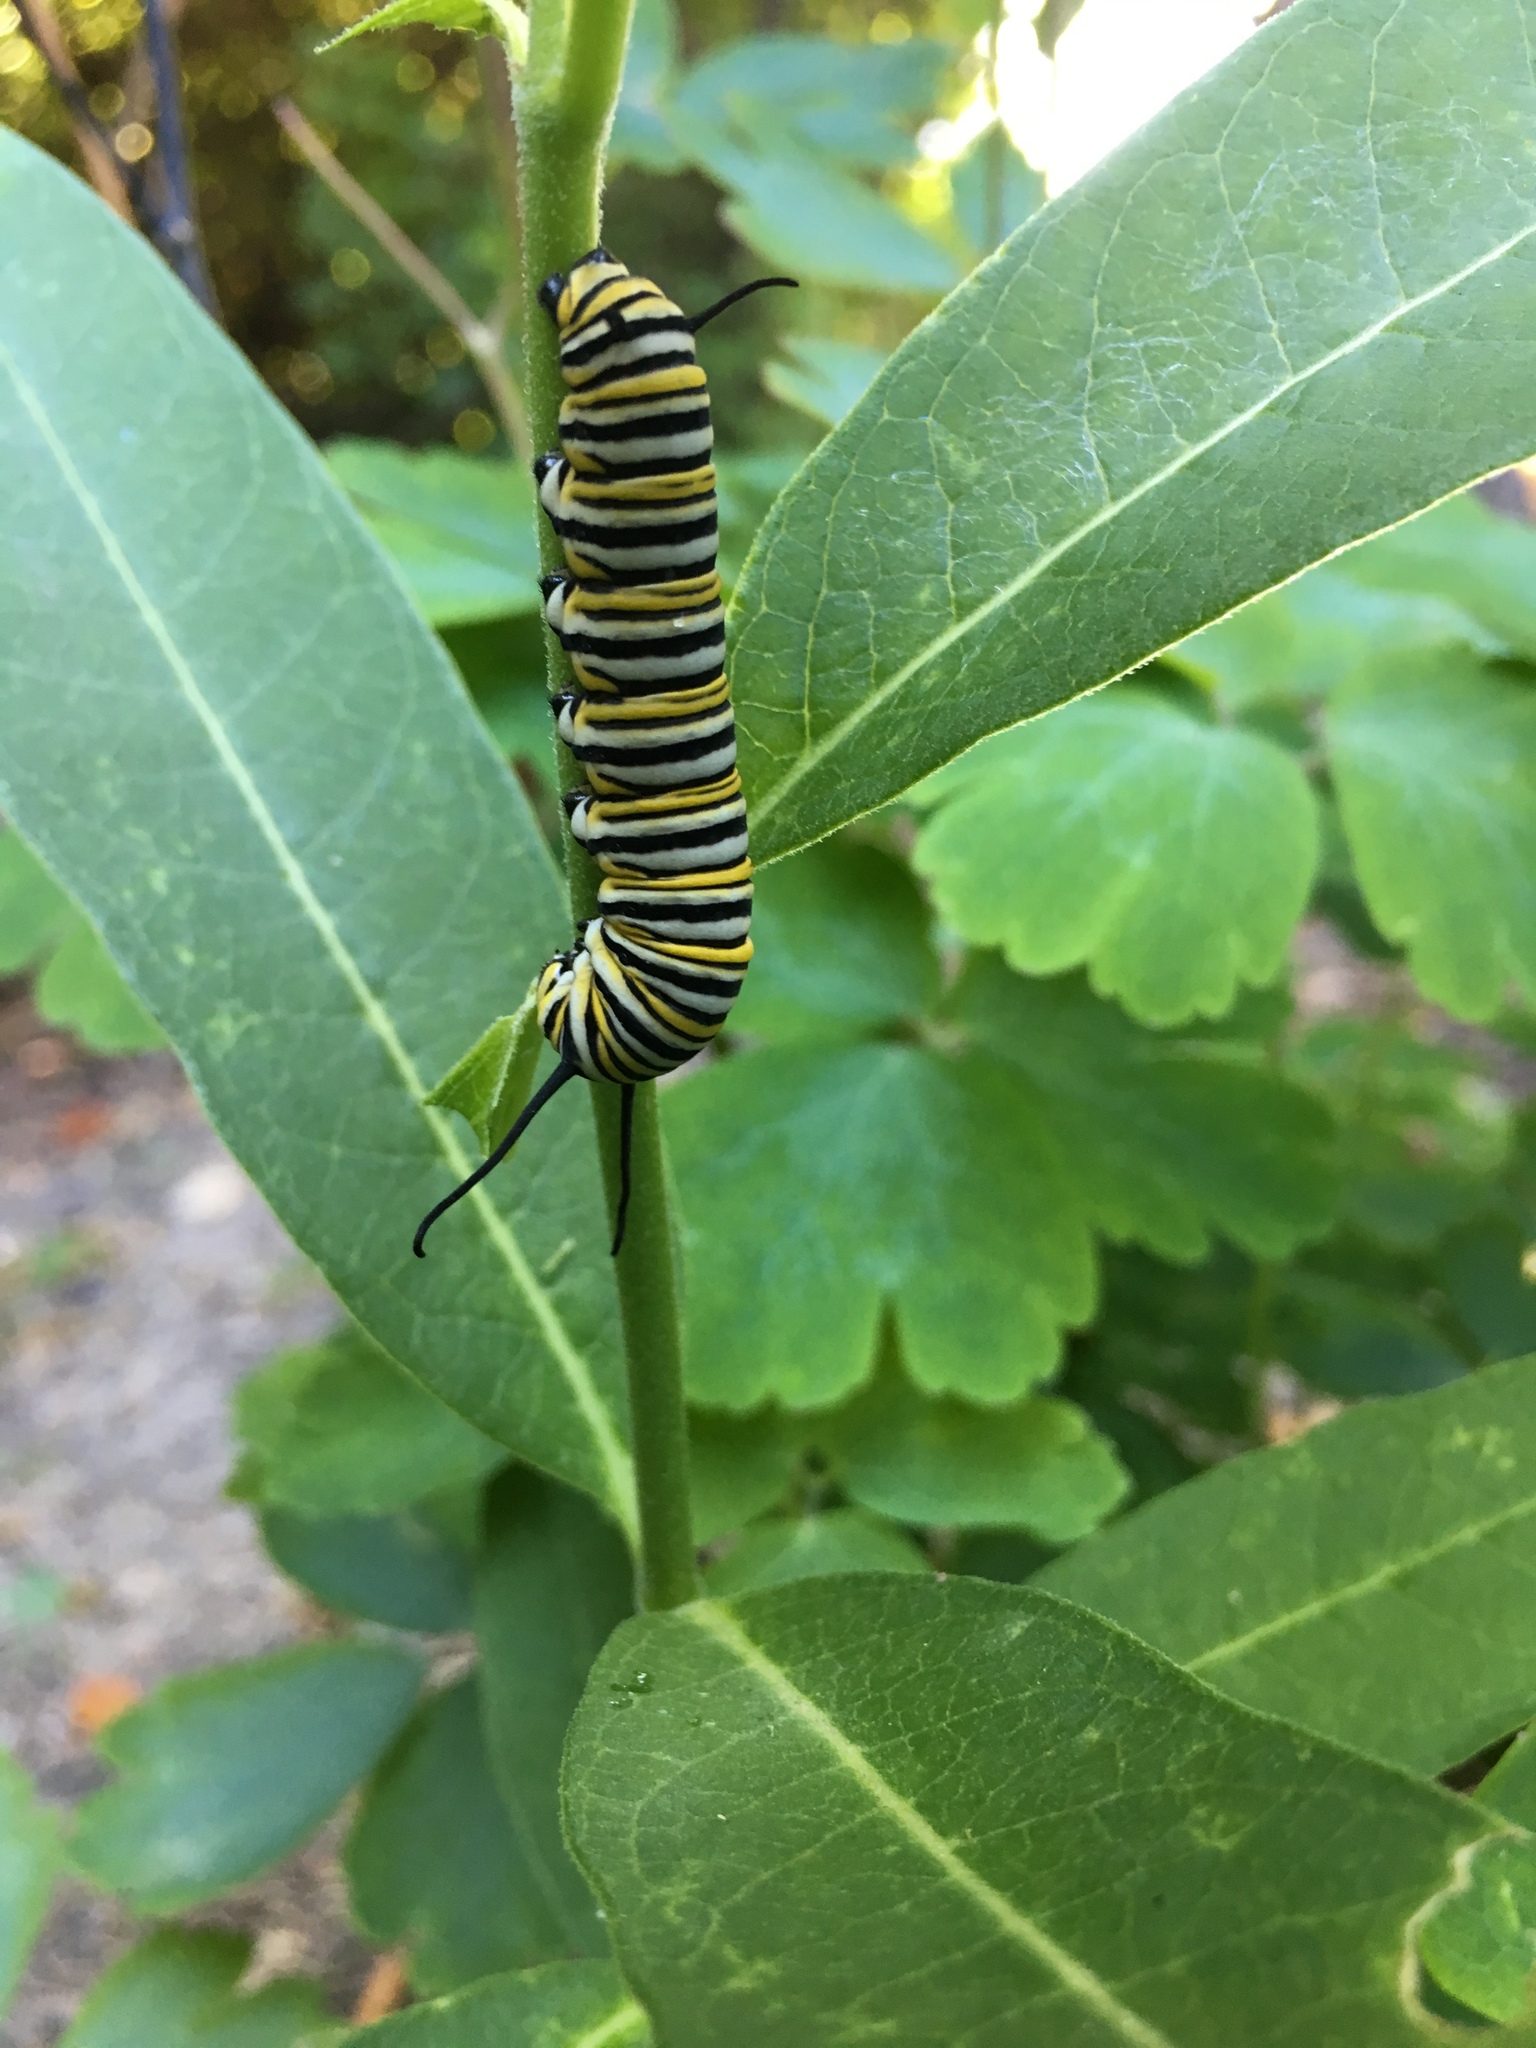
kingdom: Animalia
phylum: Arthropoda
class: Insecta
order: Lepidoptera
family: Nymphalidae
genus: Danaus
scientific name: Danaus plexippus
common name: Monarch
